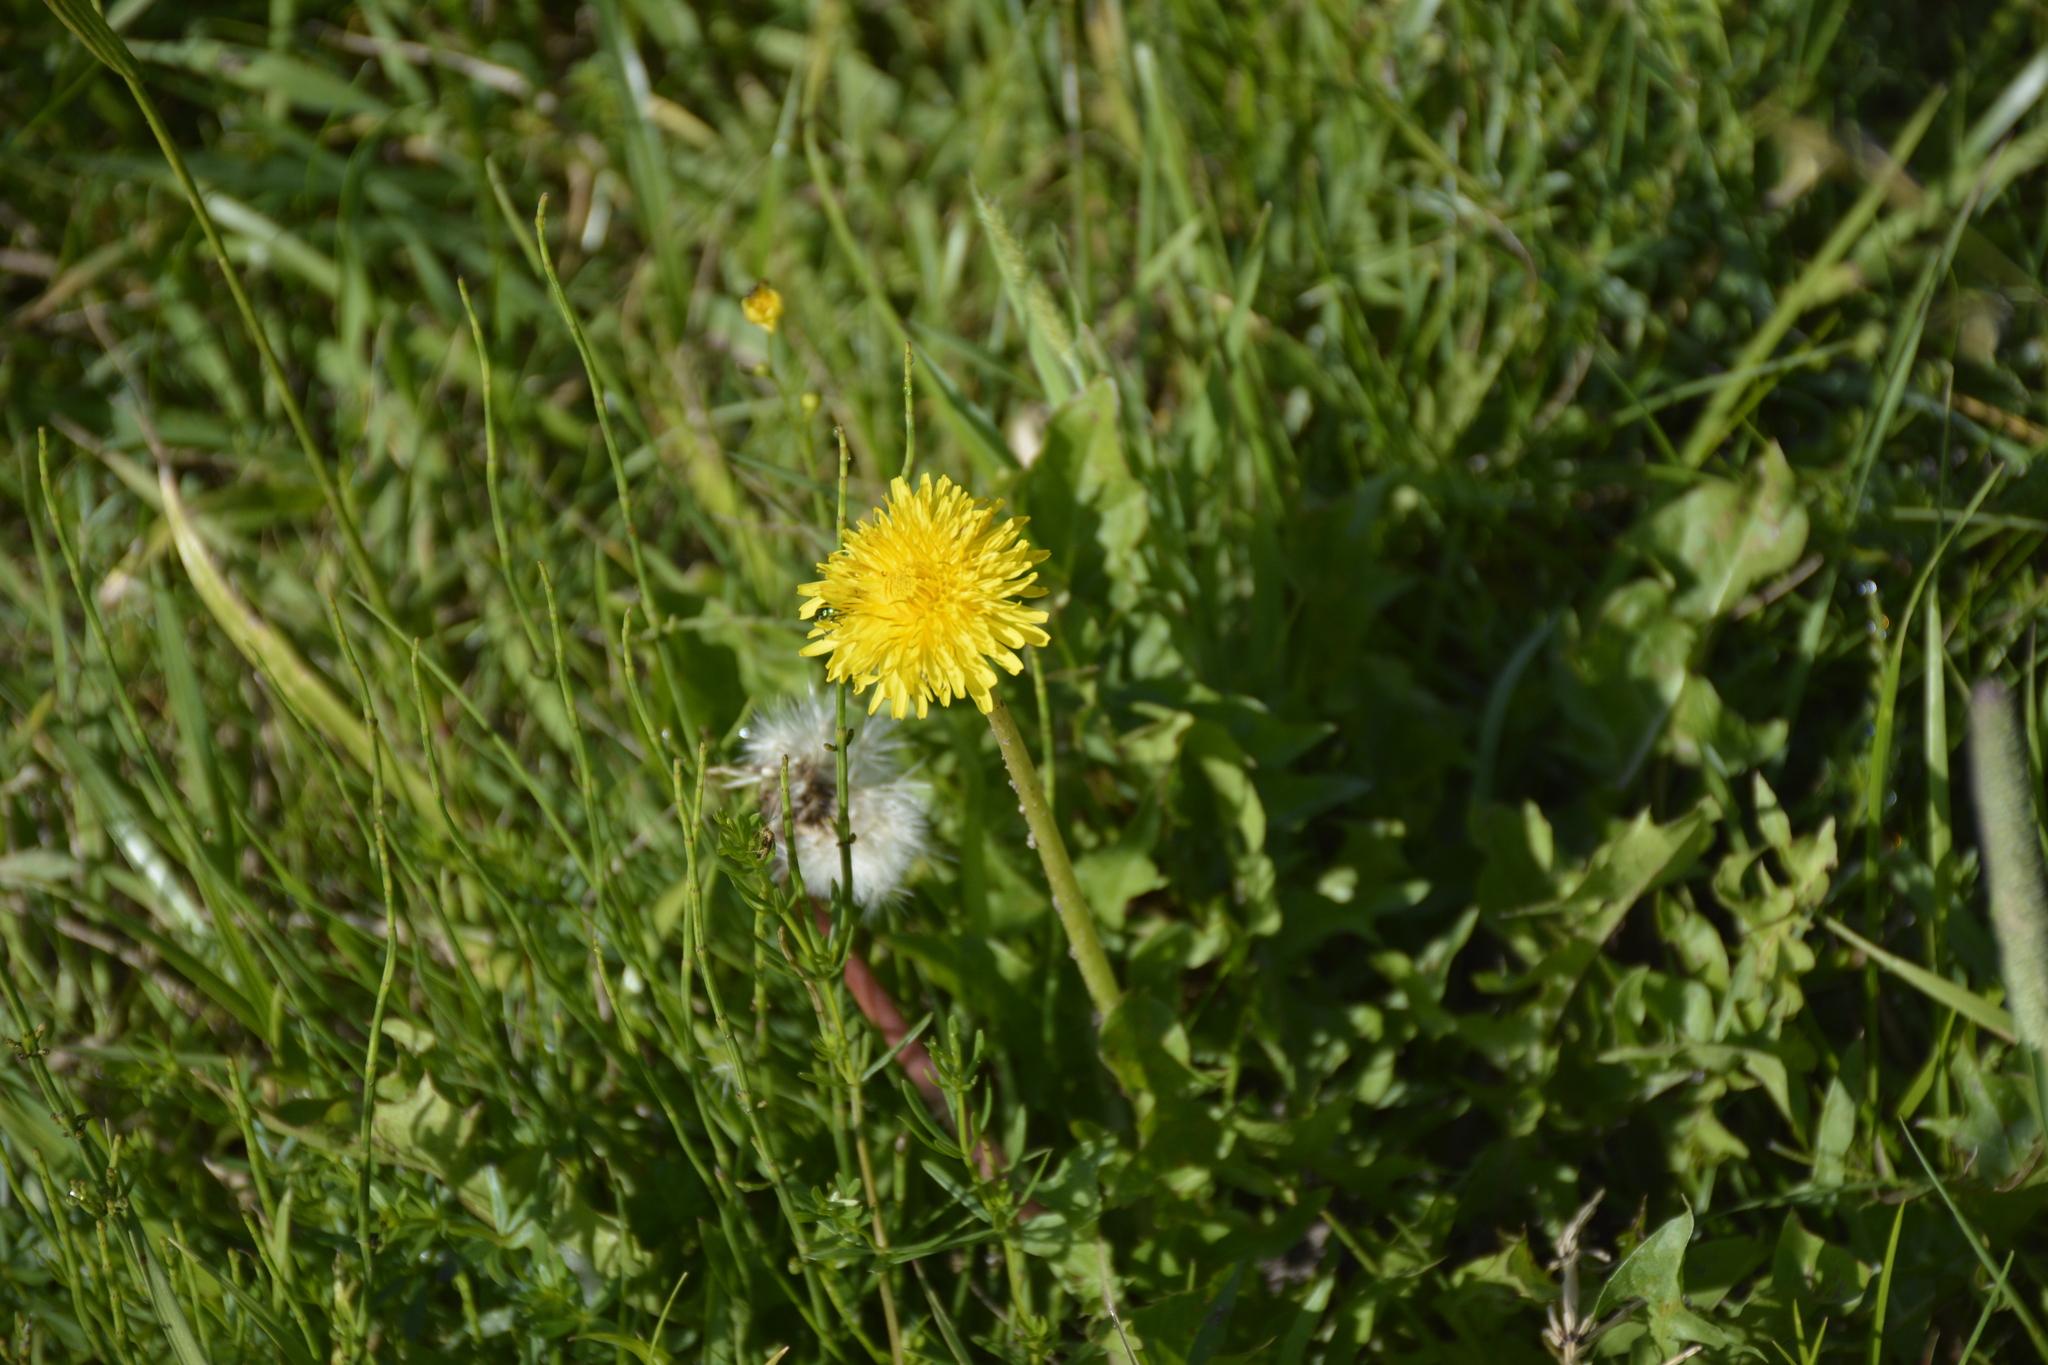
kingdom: Plantae
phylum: Tracheophyta
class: Magnoliopsida
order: Asterales
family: Asteraceae
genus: Taraxacum
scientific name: Taraxacum officinale
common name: Common dandelion
